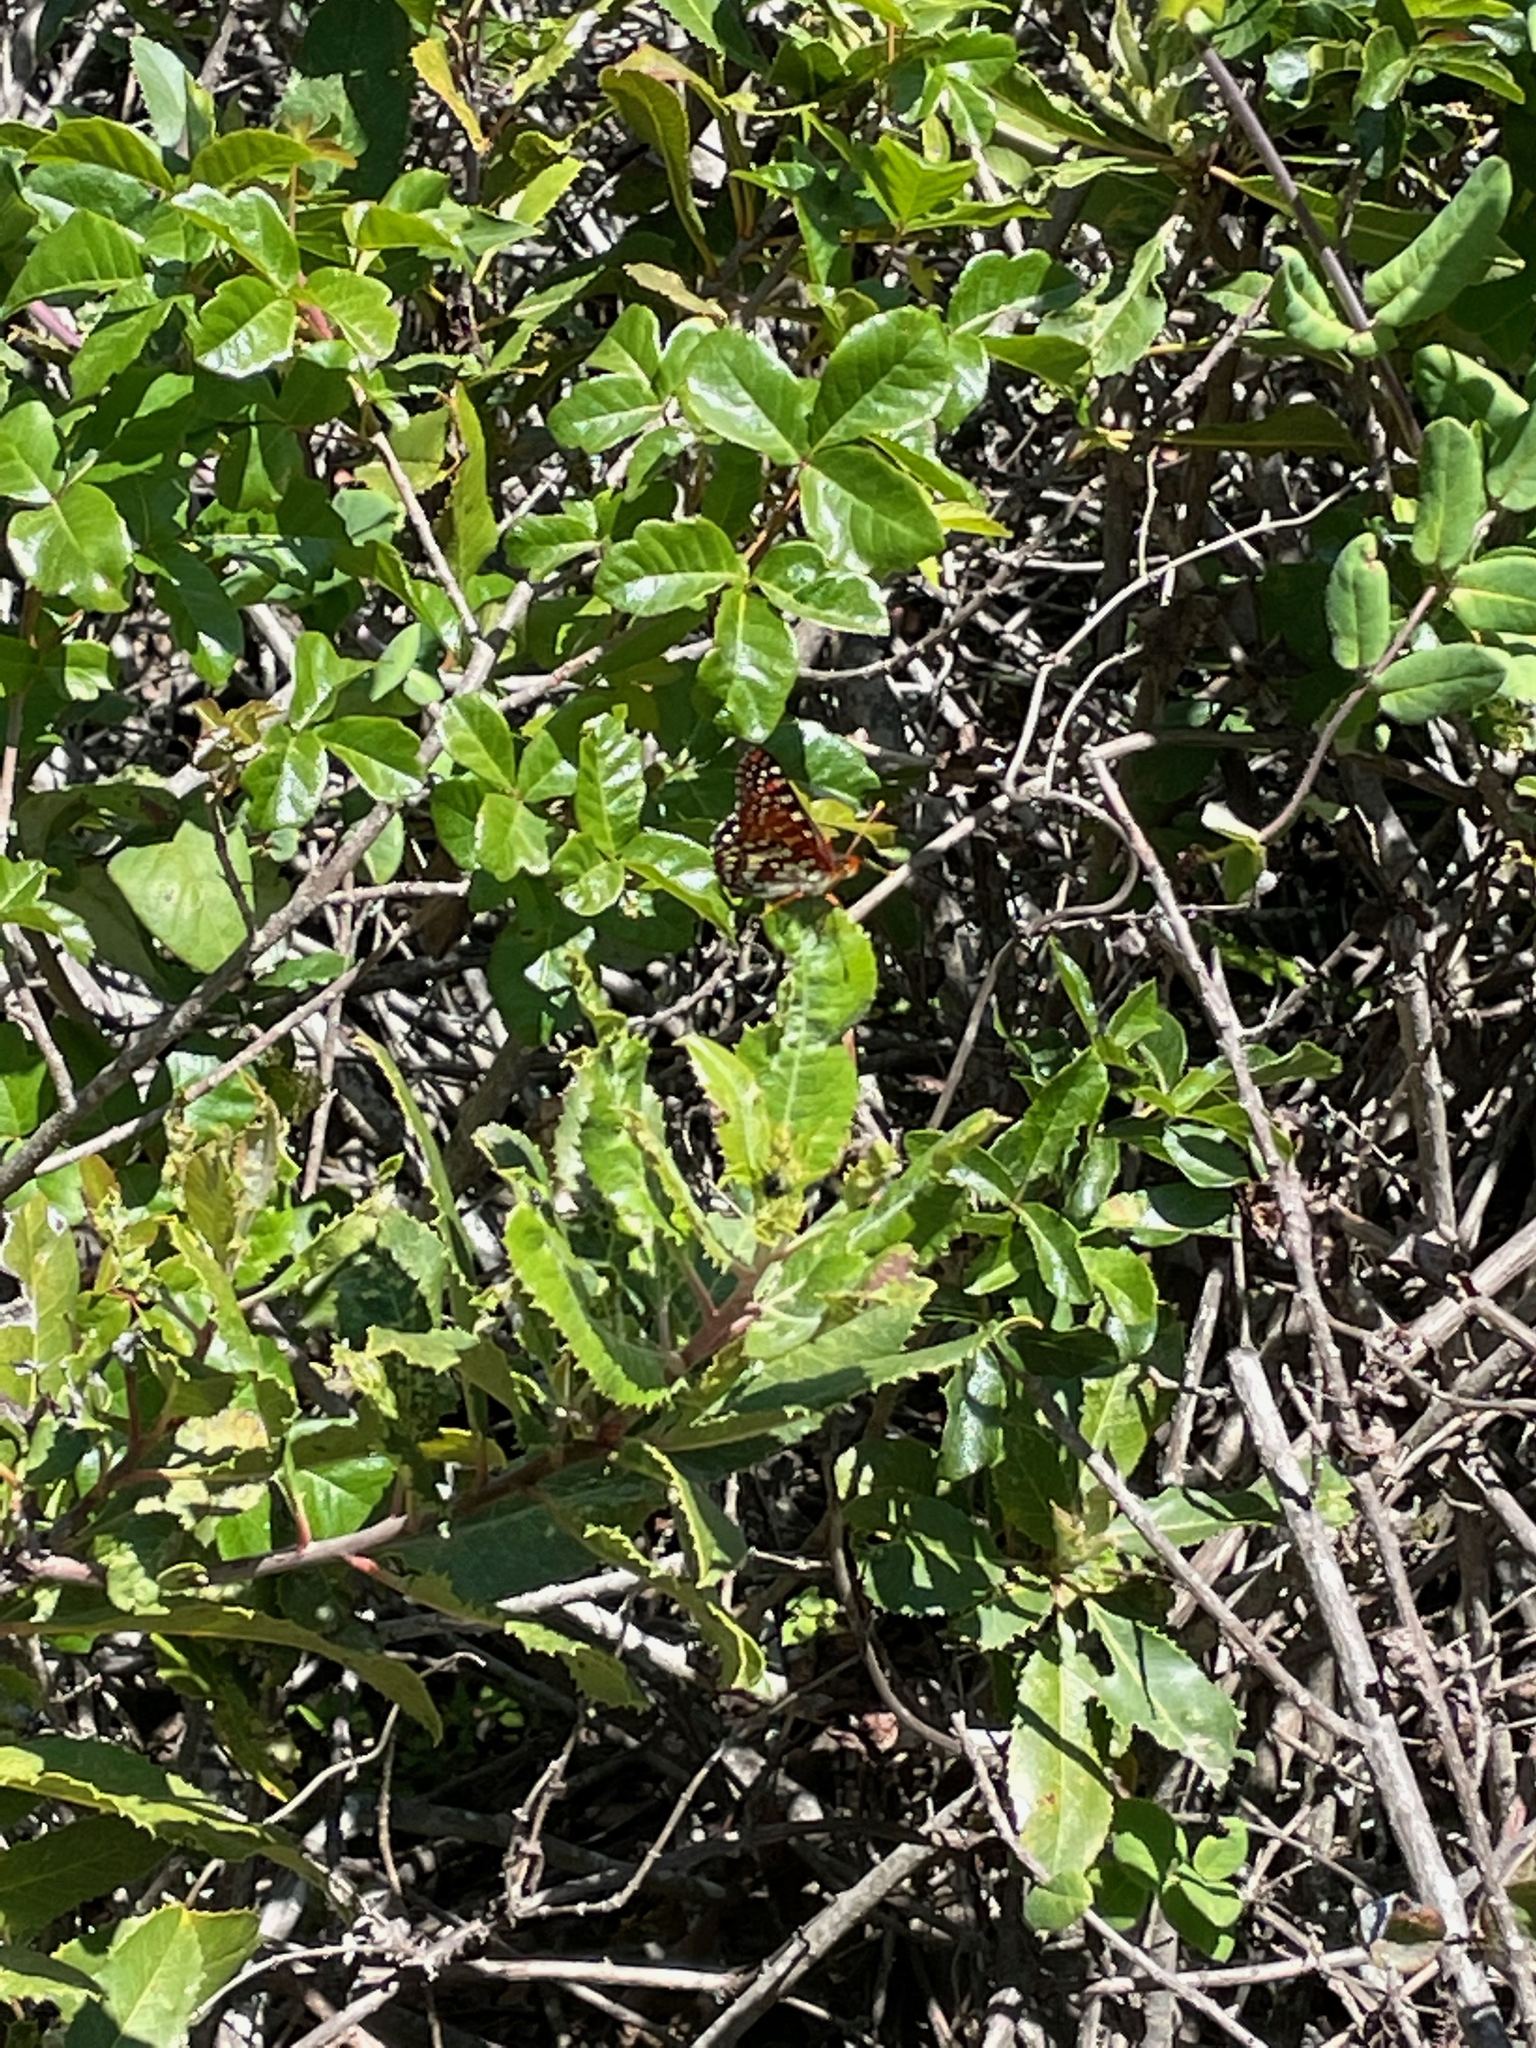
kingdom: Animalia
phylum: Arthropoda
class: Insecta
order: Lepidoptera
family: Nymphalidae
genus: Occidryas
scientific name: Occidryas chalcedona
